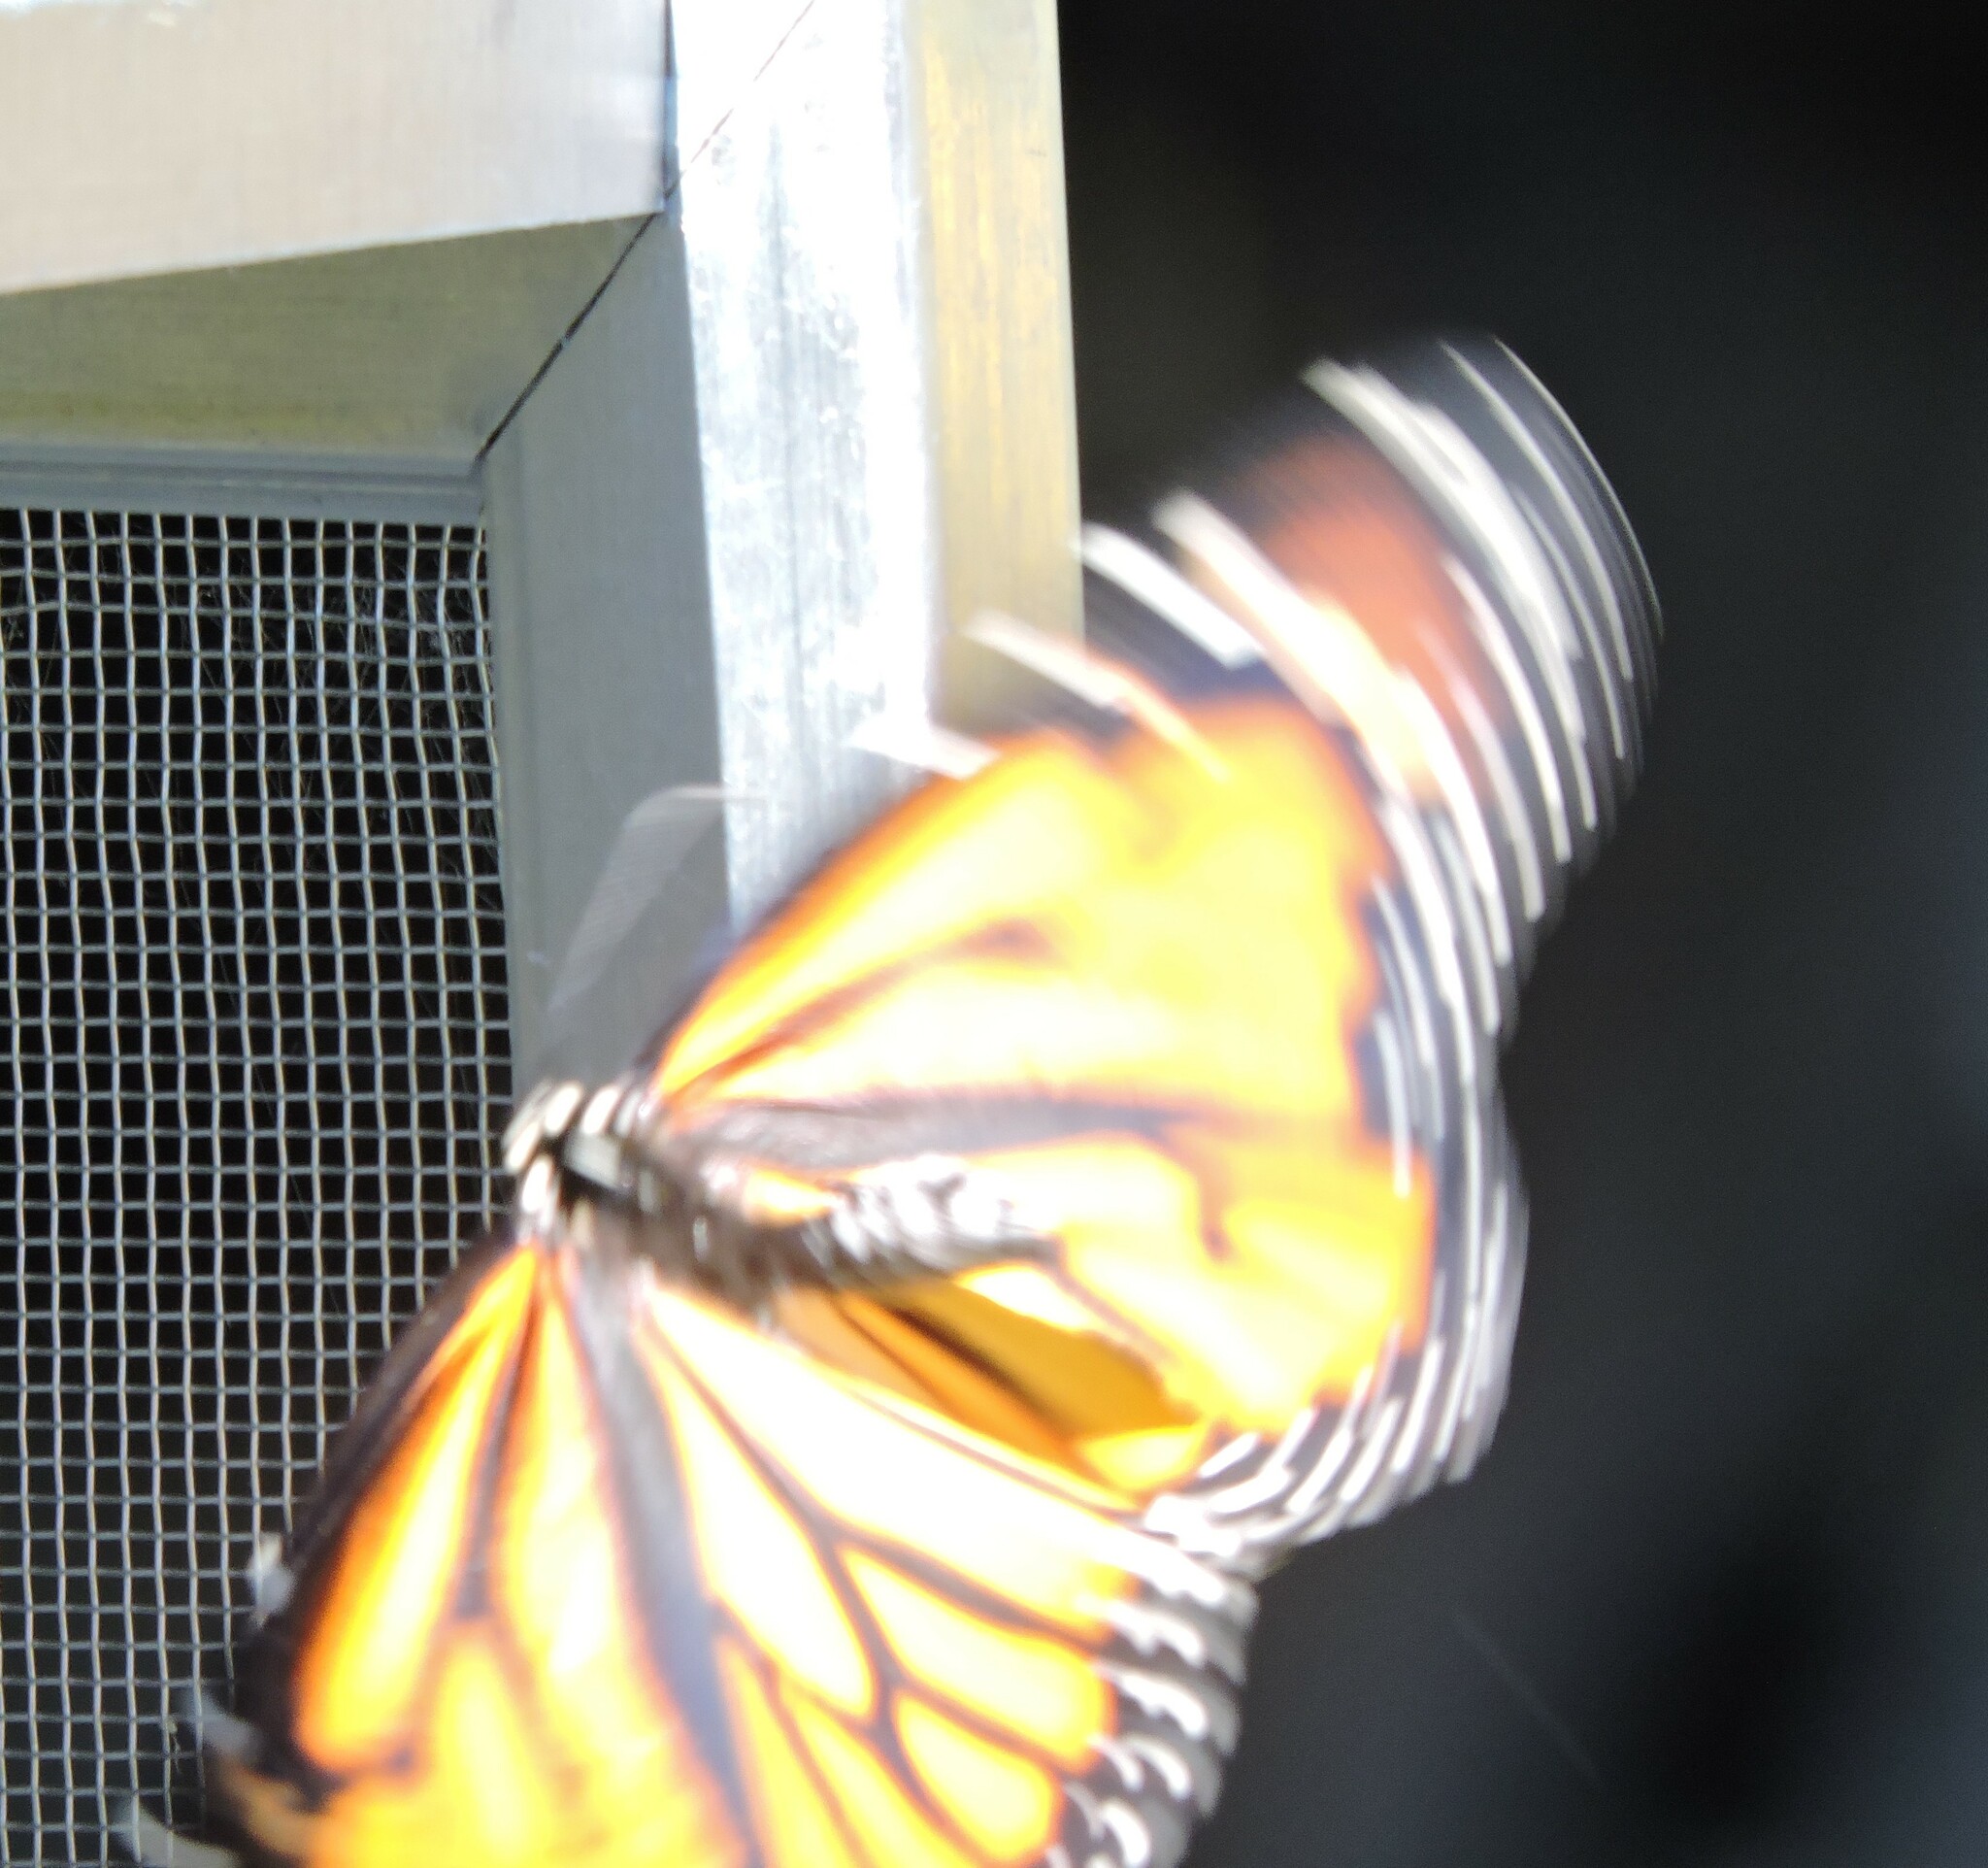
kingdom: Animalia
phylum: Arthropoda
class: Insecta
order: Lepidoptera
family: Nymphalidae
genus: Danaus
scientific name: Danaus plexippus
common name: Monarch
